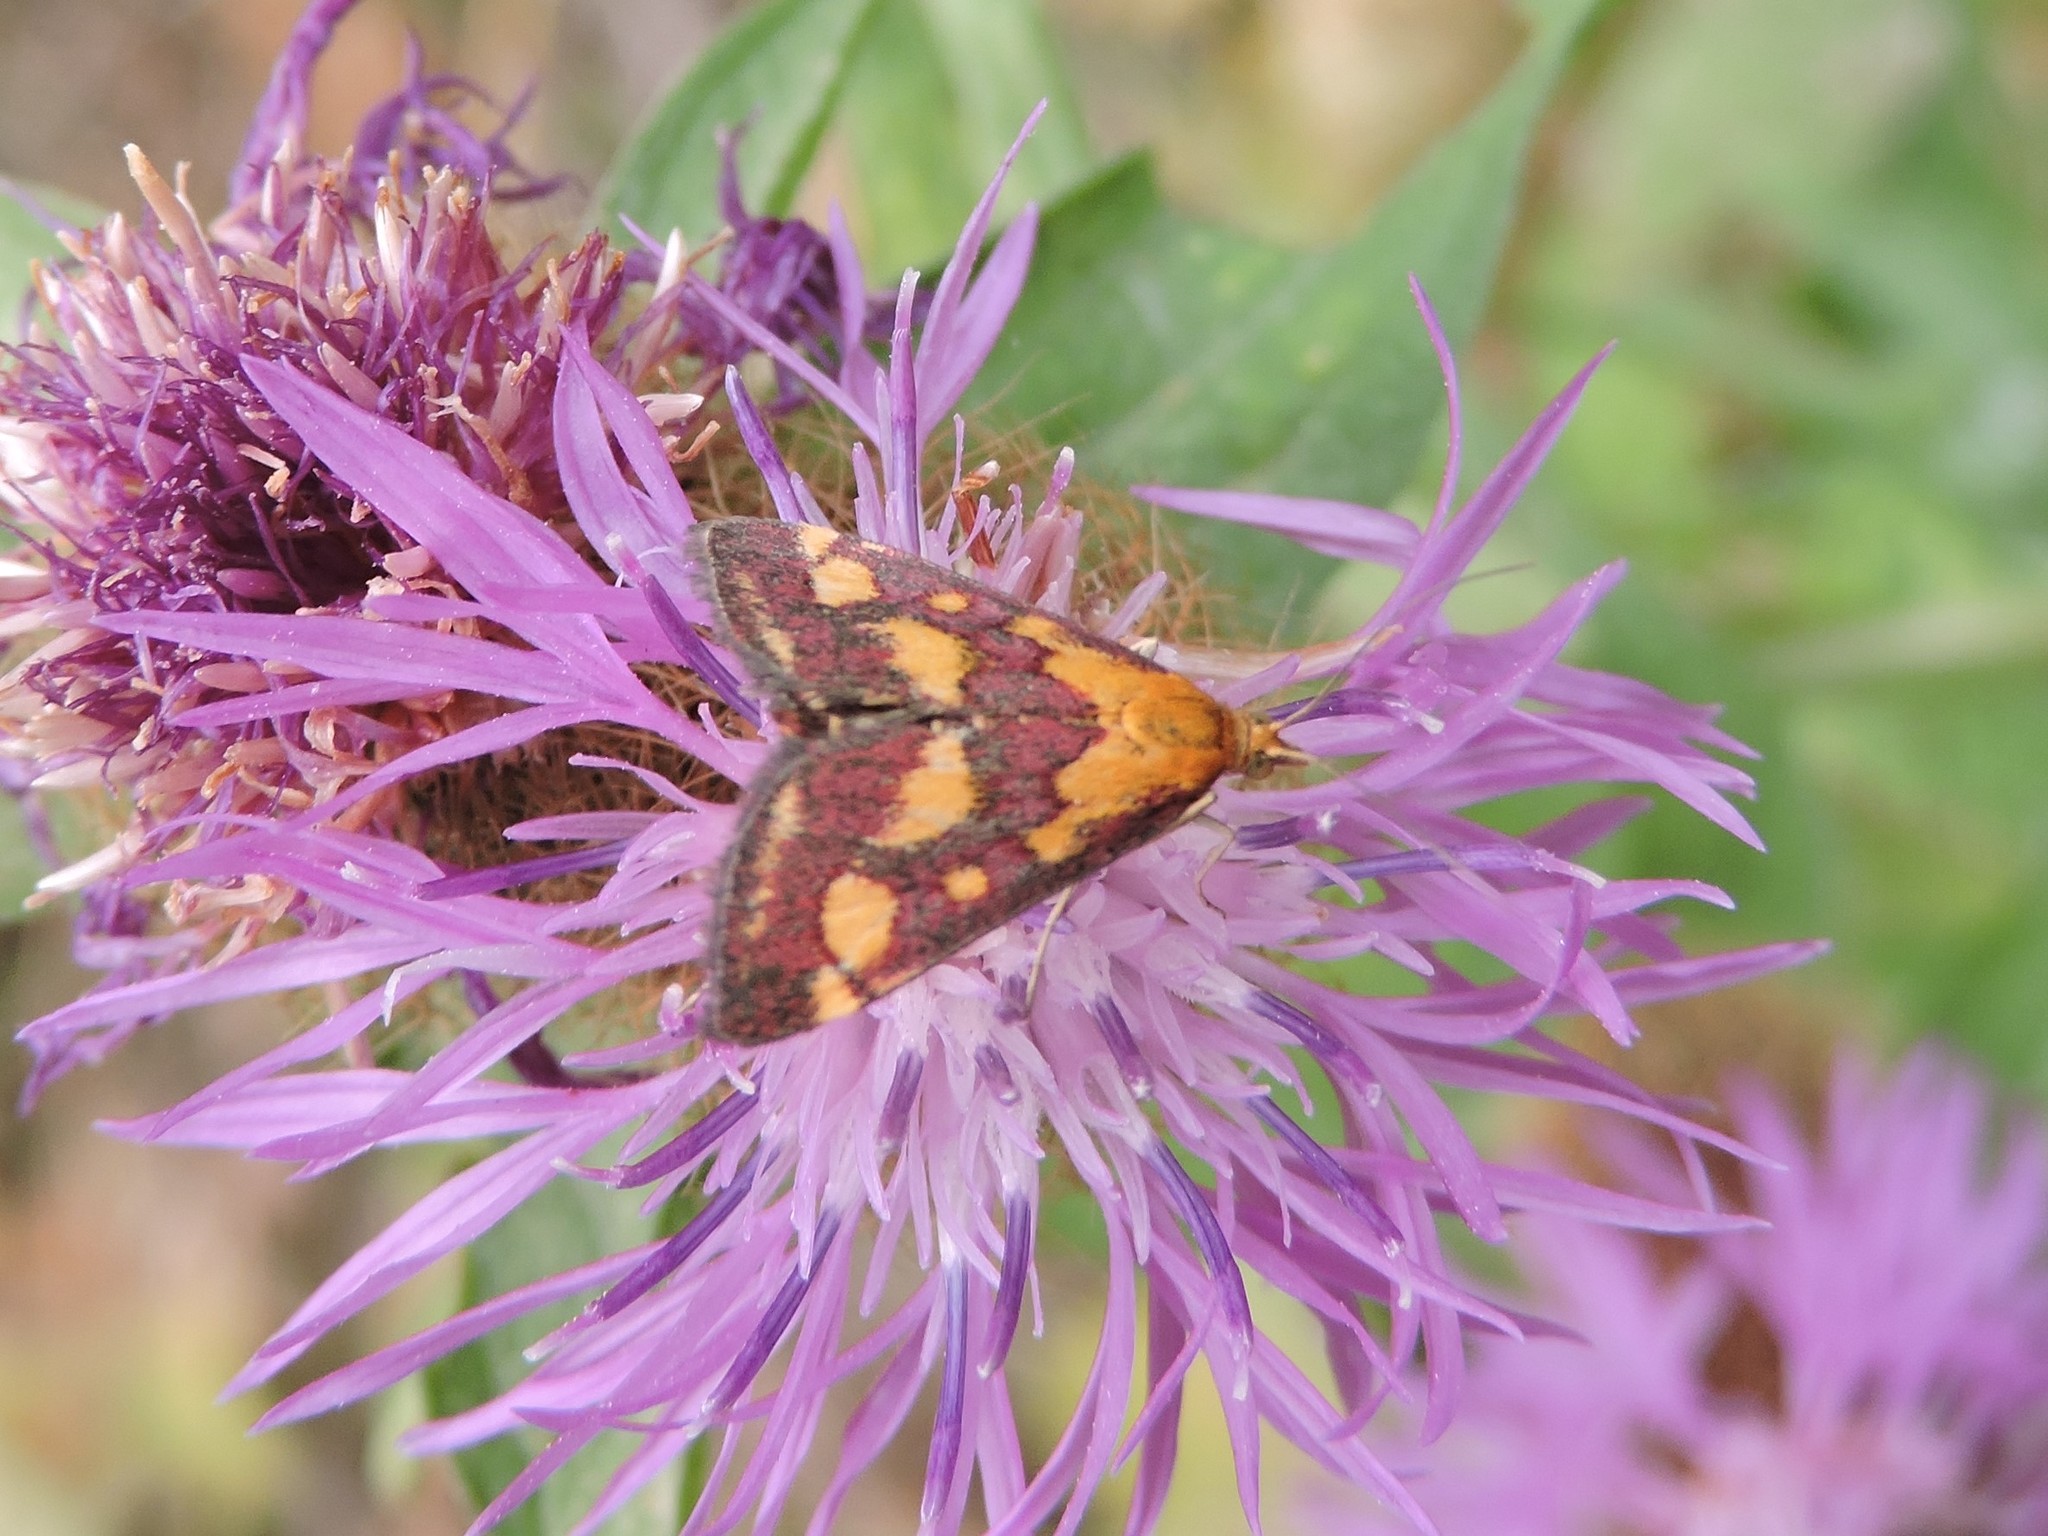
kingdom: Animalia
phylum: Arthropoda
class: Insecta
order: Lepidoptera
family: Crambidae
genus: Pyrausta
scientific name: Pyrausta purpuralis
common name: Common purple & gold
